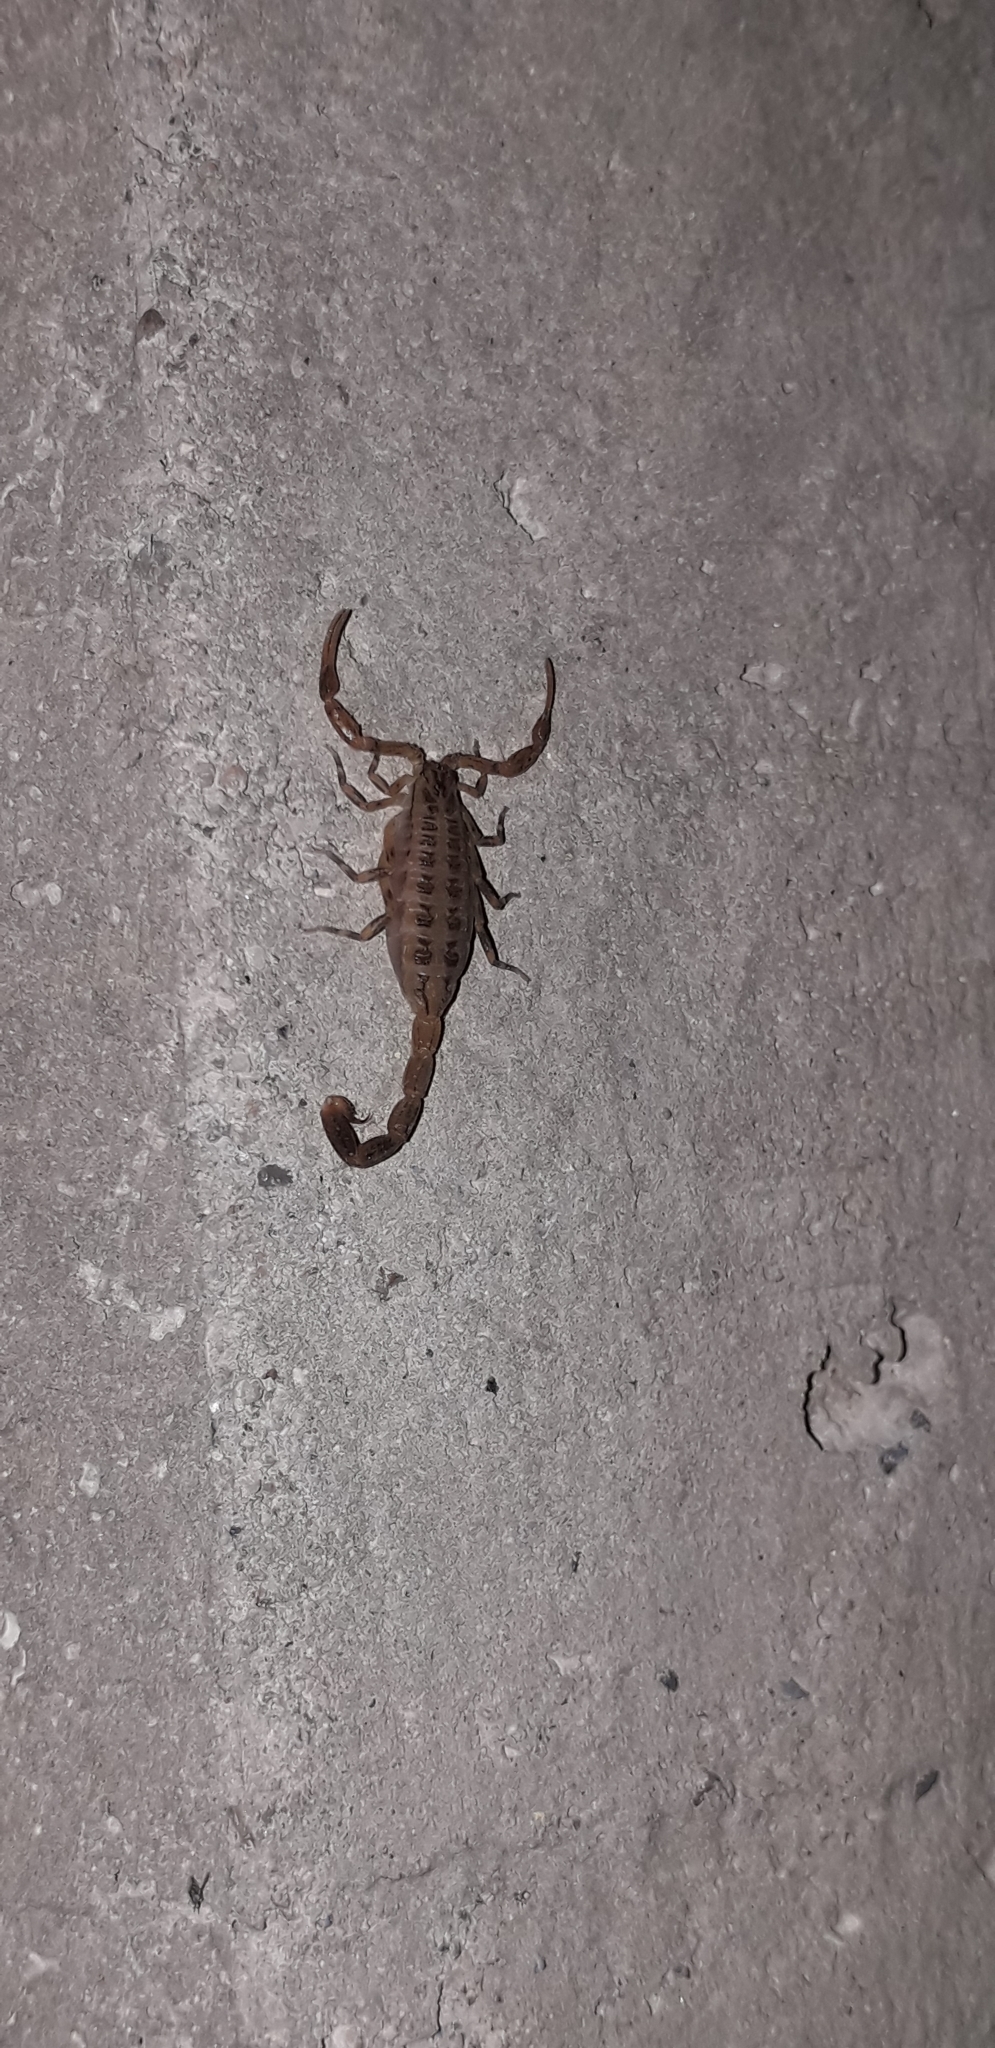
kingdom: Animalia
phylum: Arthropoda
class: Arachnida
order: Scorpiones
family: Buthidae
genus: Centruroides
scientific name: Centruroides sculpturatus
